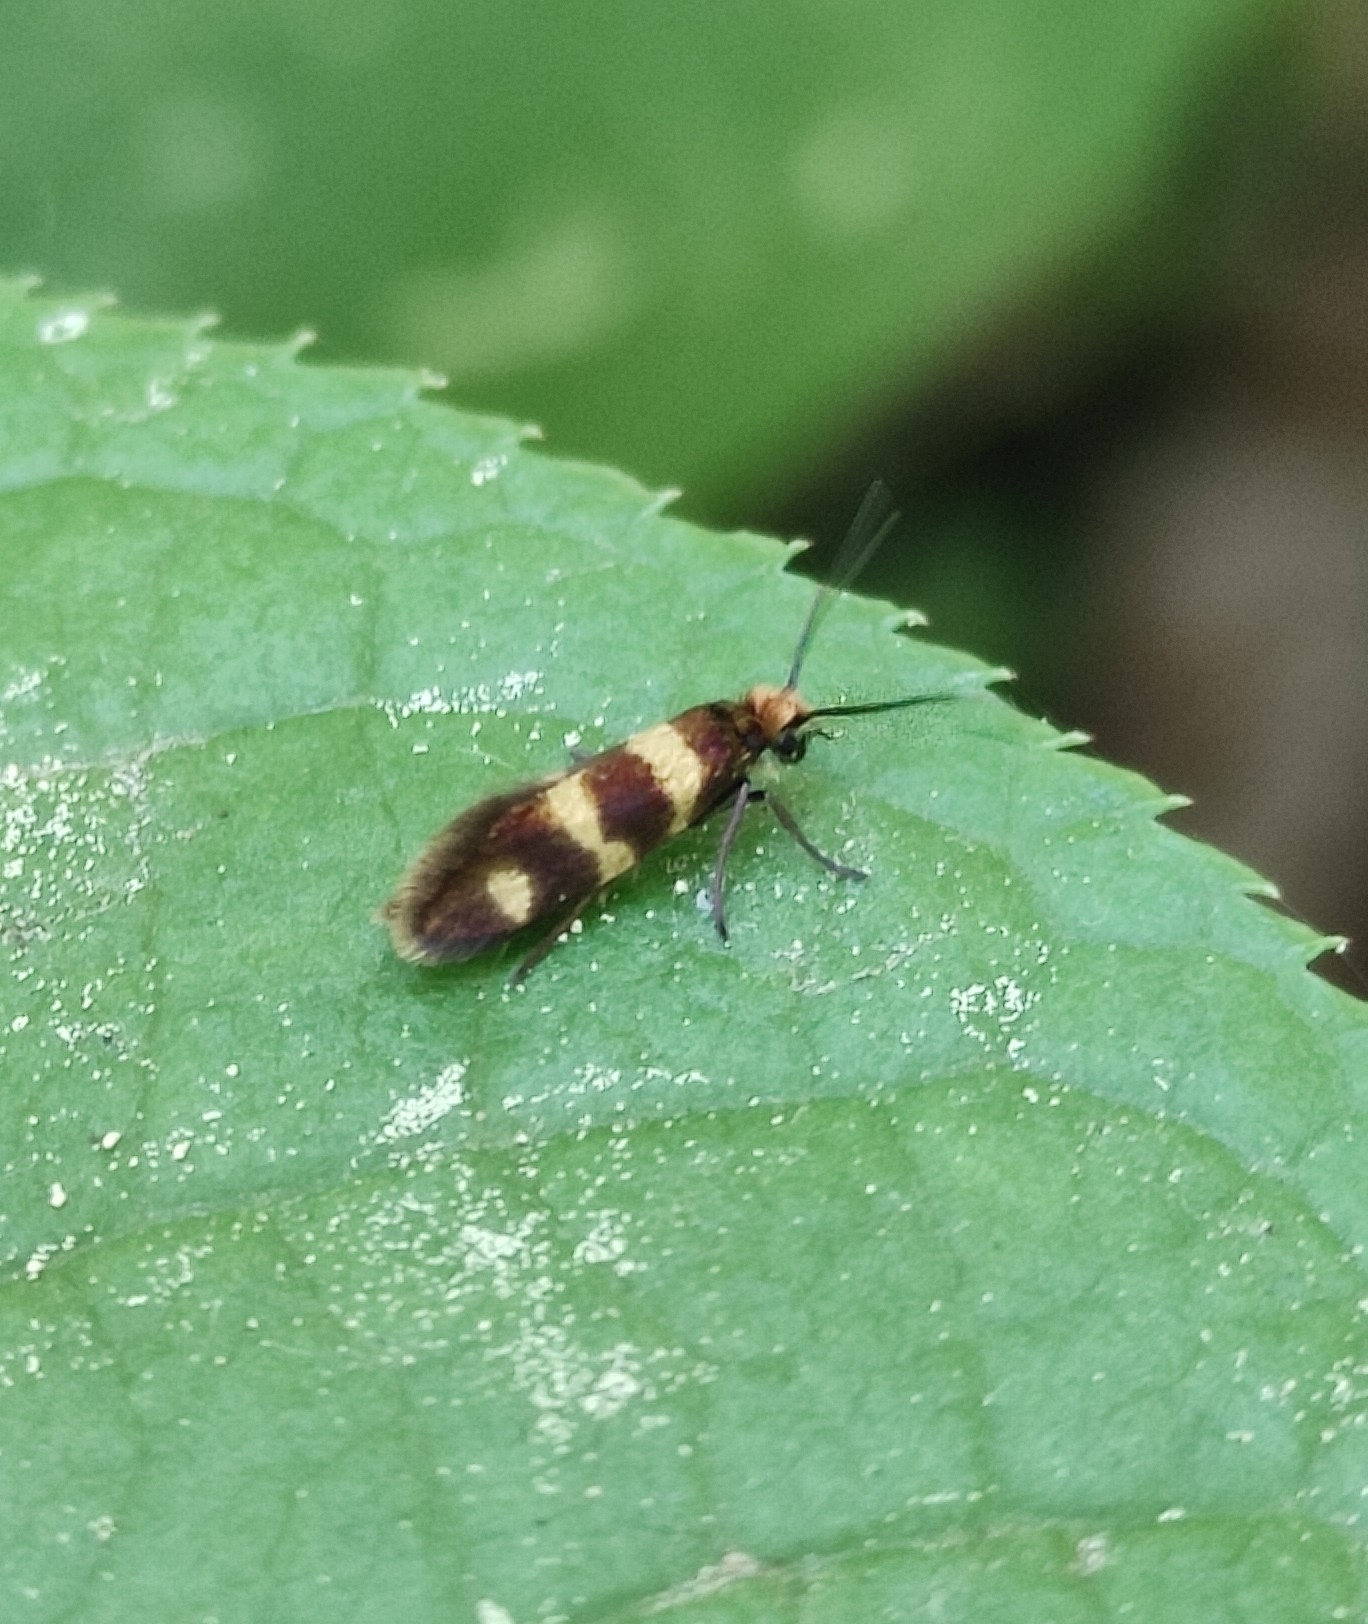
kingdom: Animalia
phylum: Arthropoda
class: Insecta
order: Lepidoptera
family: Micropterigidae
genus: Micropterix
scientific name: Micropterix aureatella
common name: Yellow-barred gold
